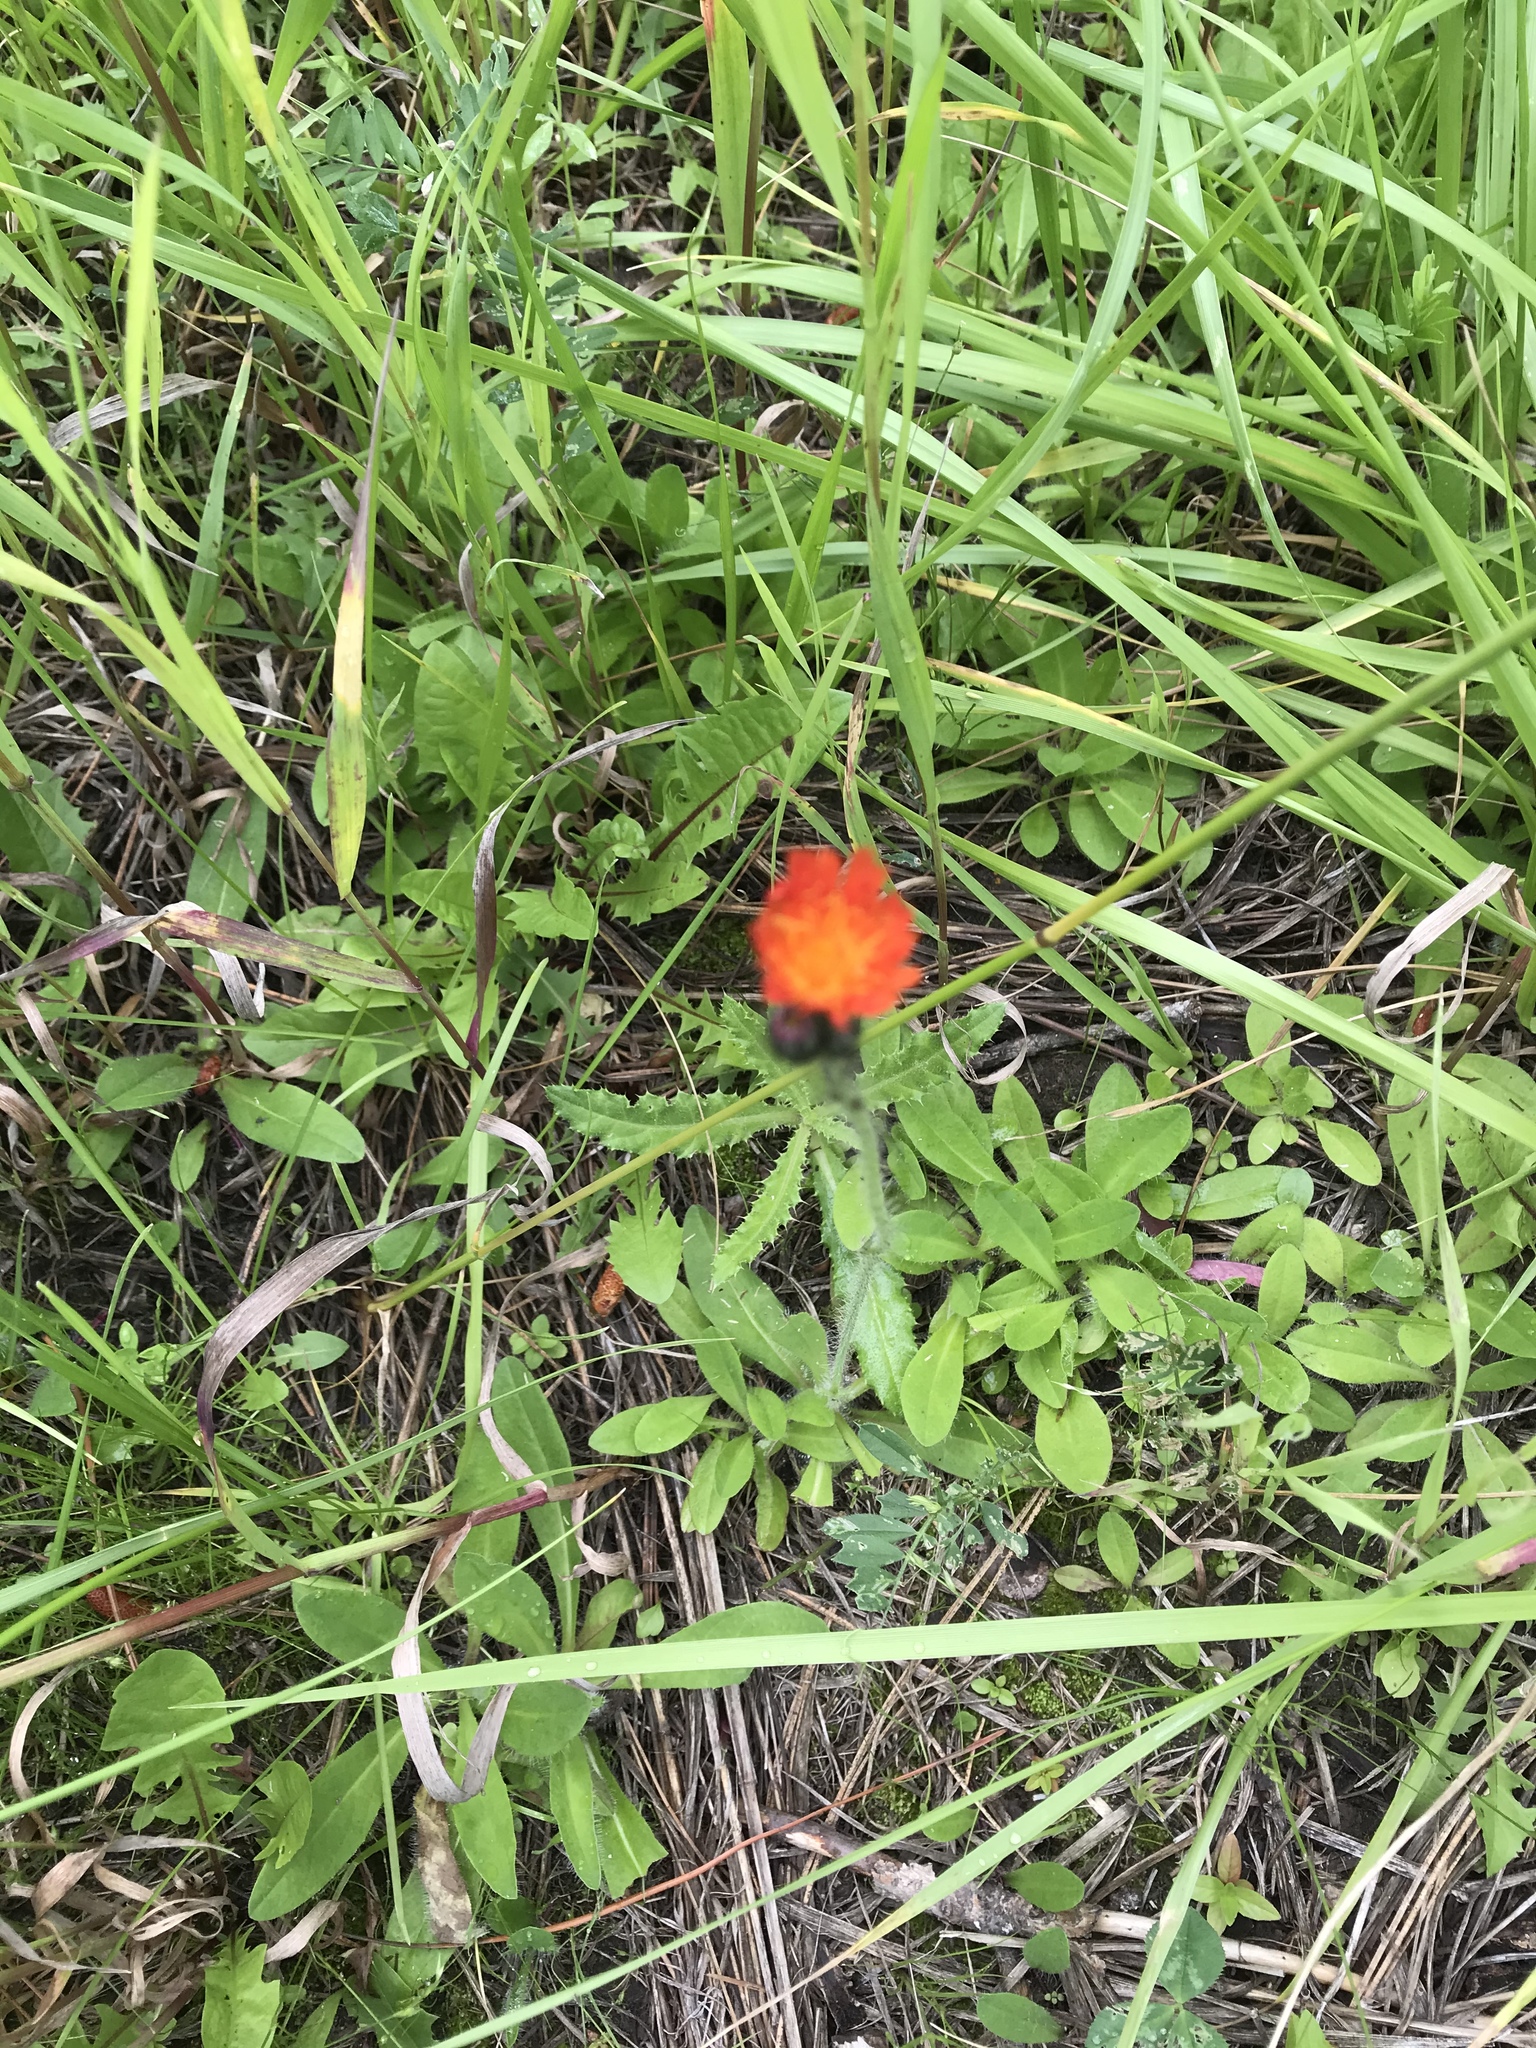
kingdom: Plantae
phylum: Tracheophyta
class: Magnoliopsida
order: Asterales
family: Asteraceae
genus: Pilosella
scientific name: Pilosella aurantiaca
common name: Fox-and-cubs
